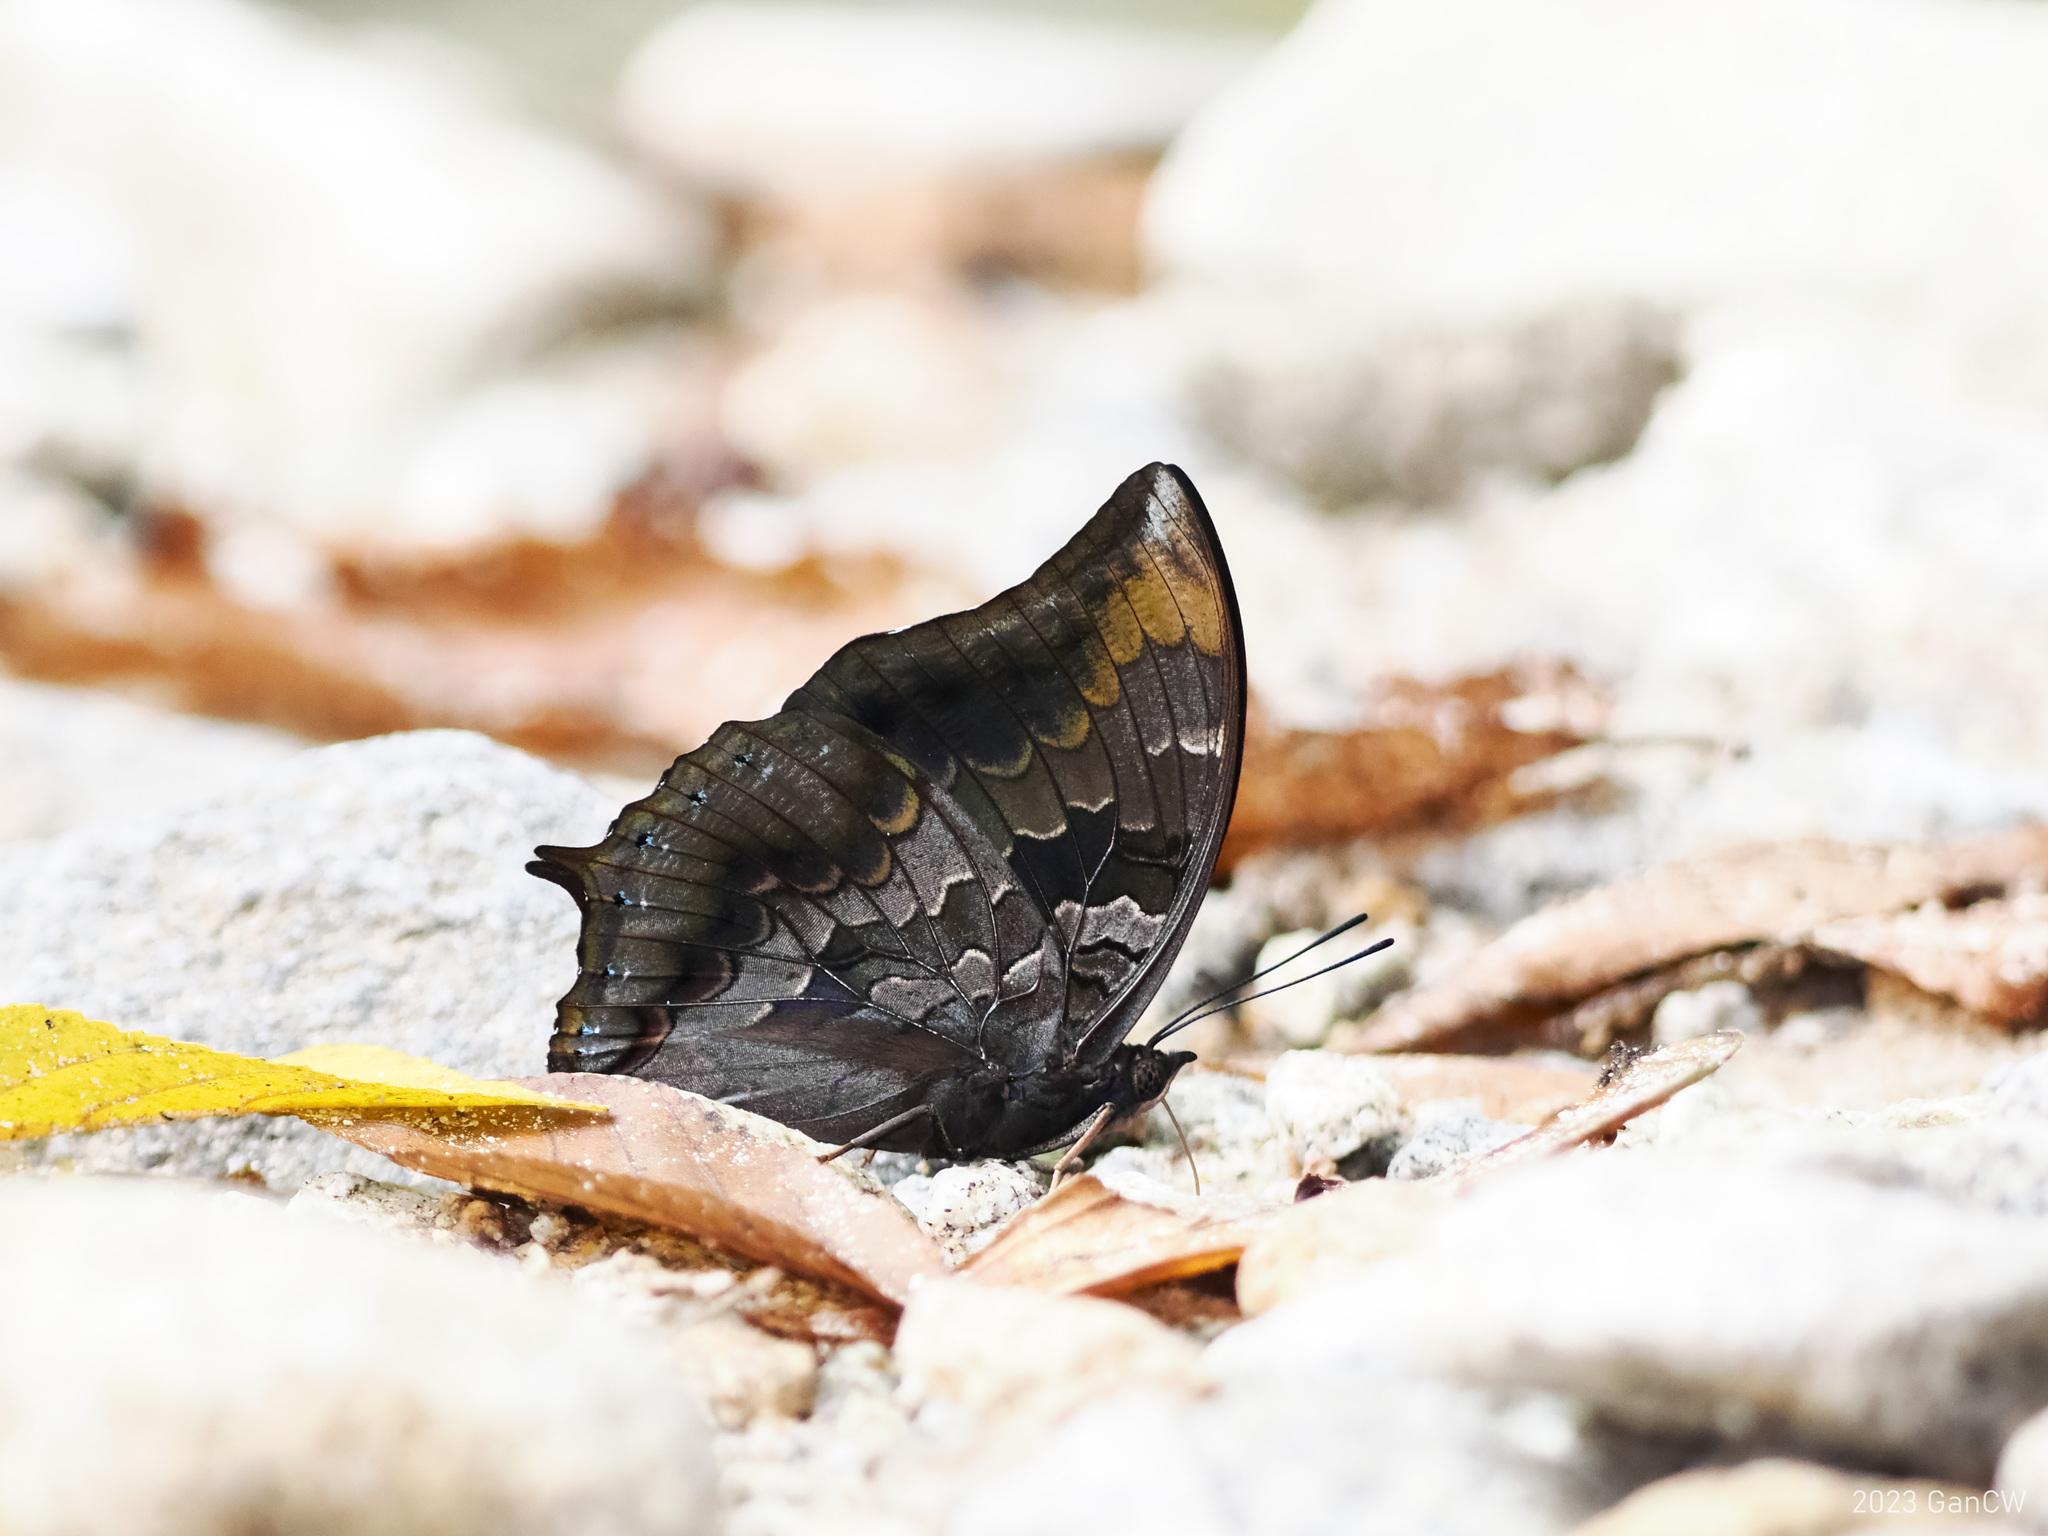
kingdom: Animalia
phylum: Arthropoda
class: Insecta
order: Lepidoptera
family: Nymphalidae
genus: Charaxes
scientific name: Charaxes mars
